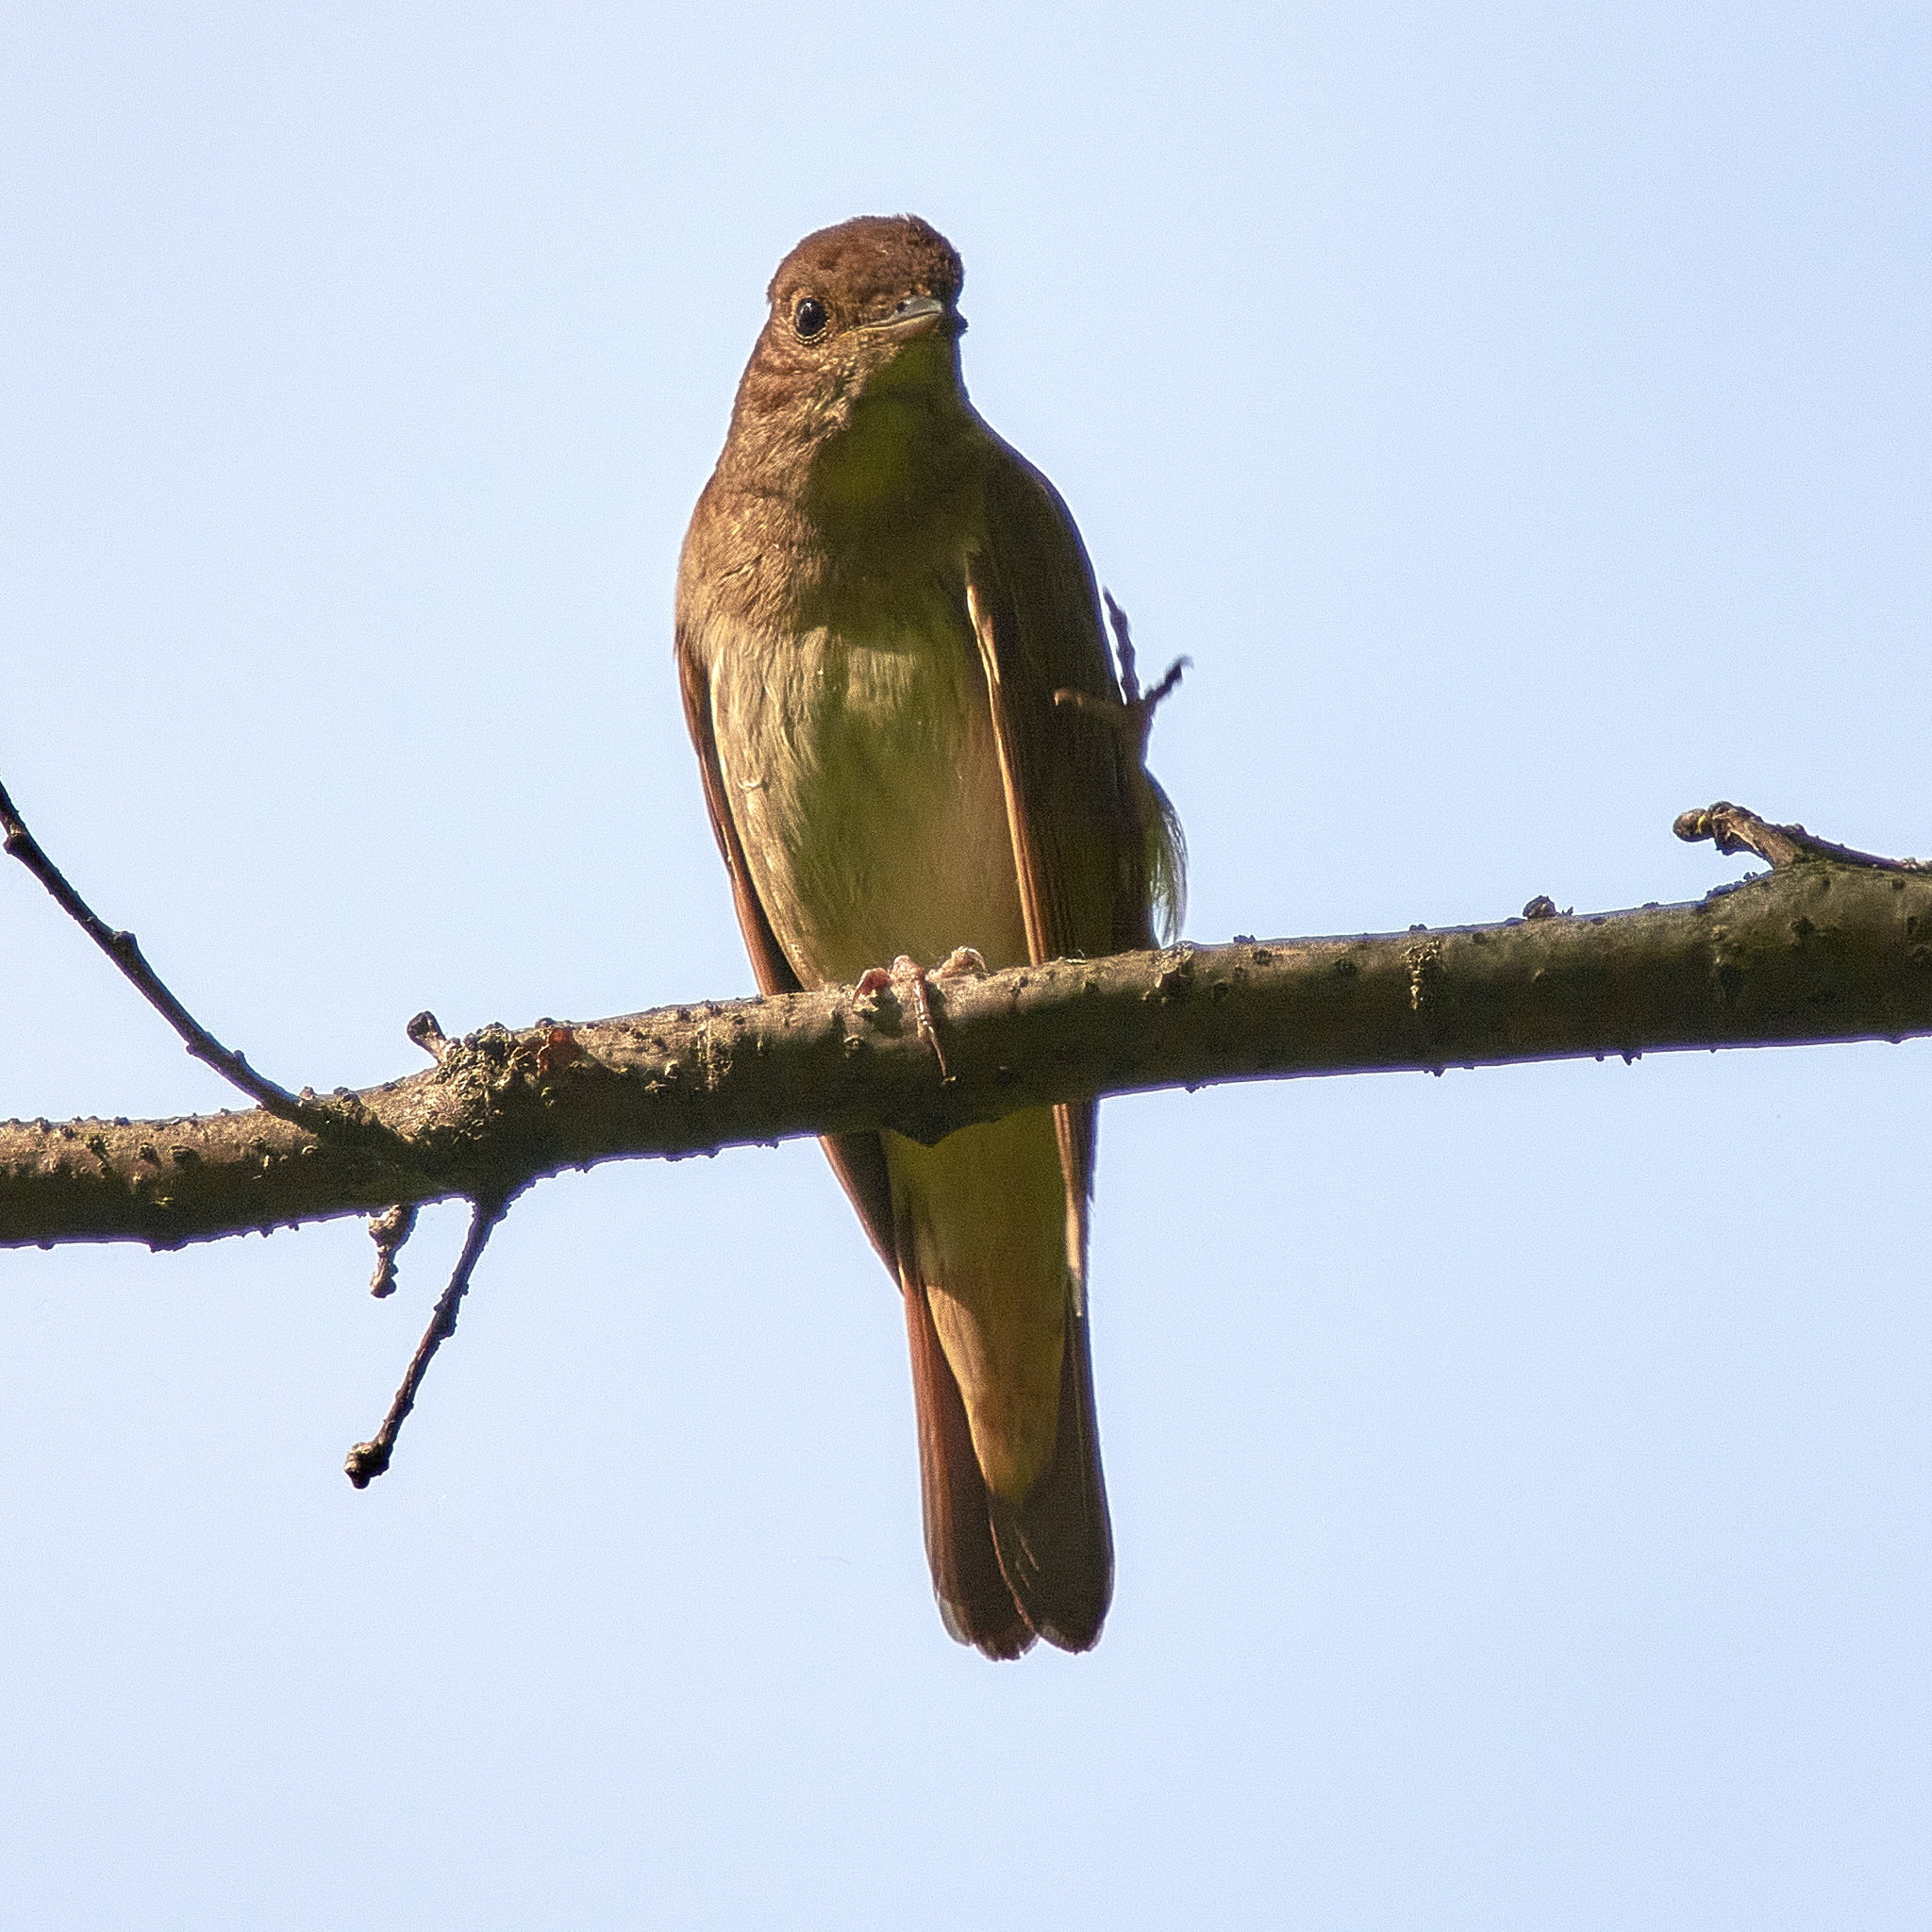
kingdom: Animalia
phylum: Chordata
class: Aves
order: Passeriformes
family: Muscicapidae
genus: Luscinia
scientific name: Luscinia luscinia
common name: Thrush nightingale
